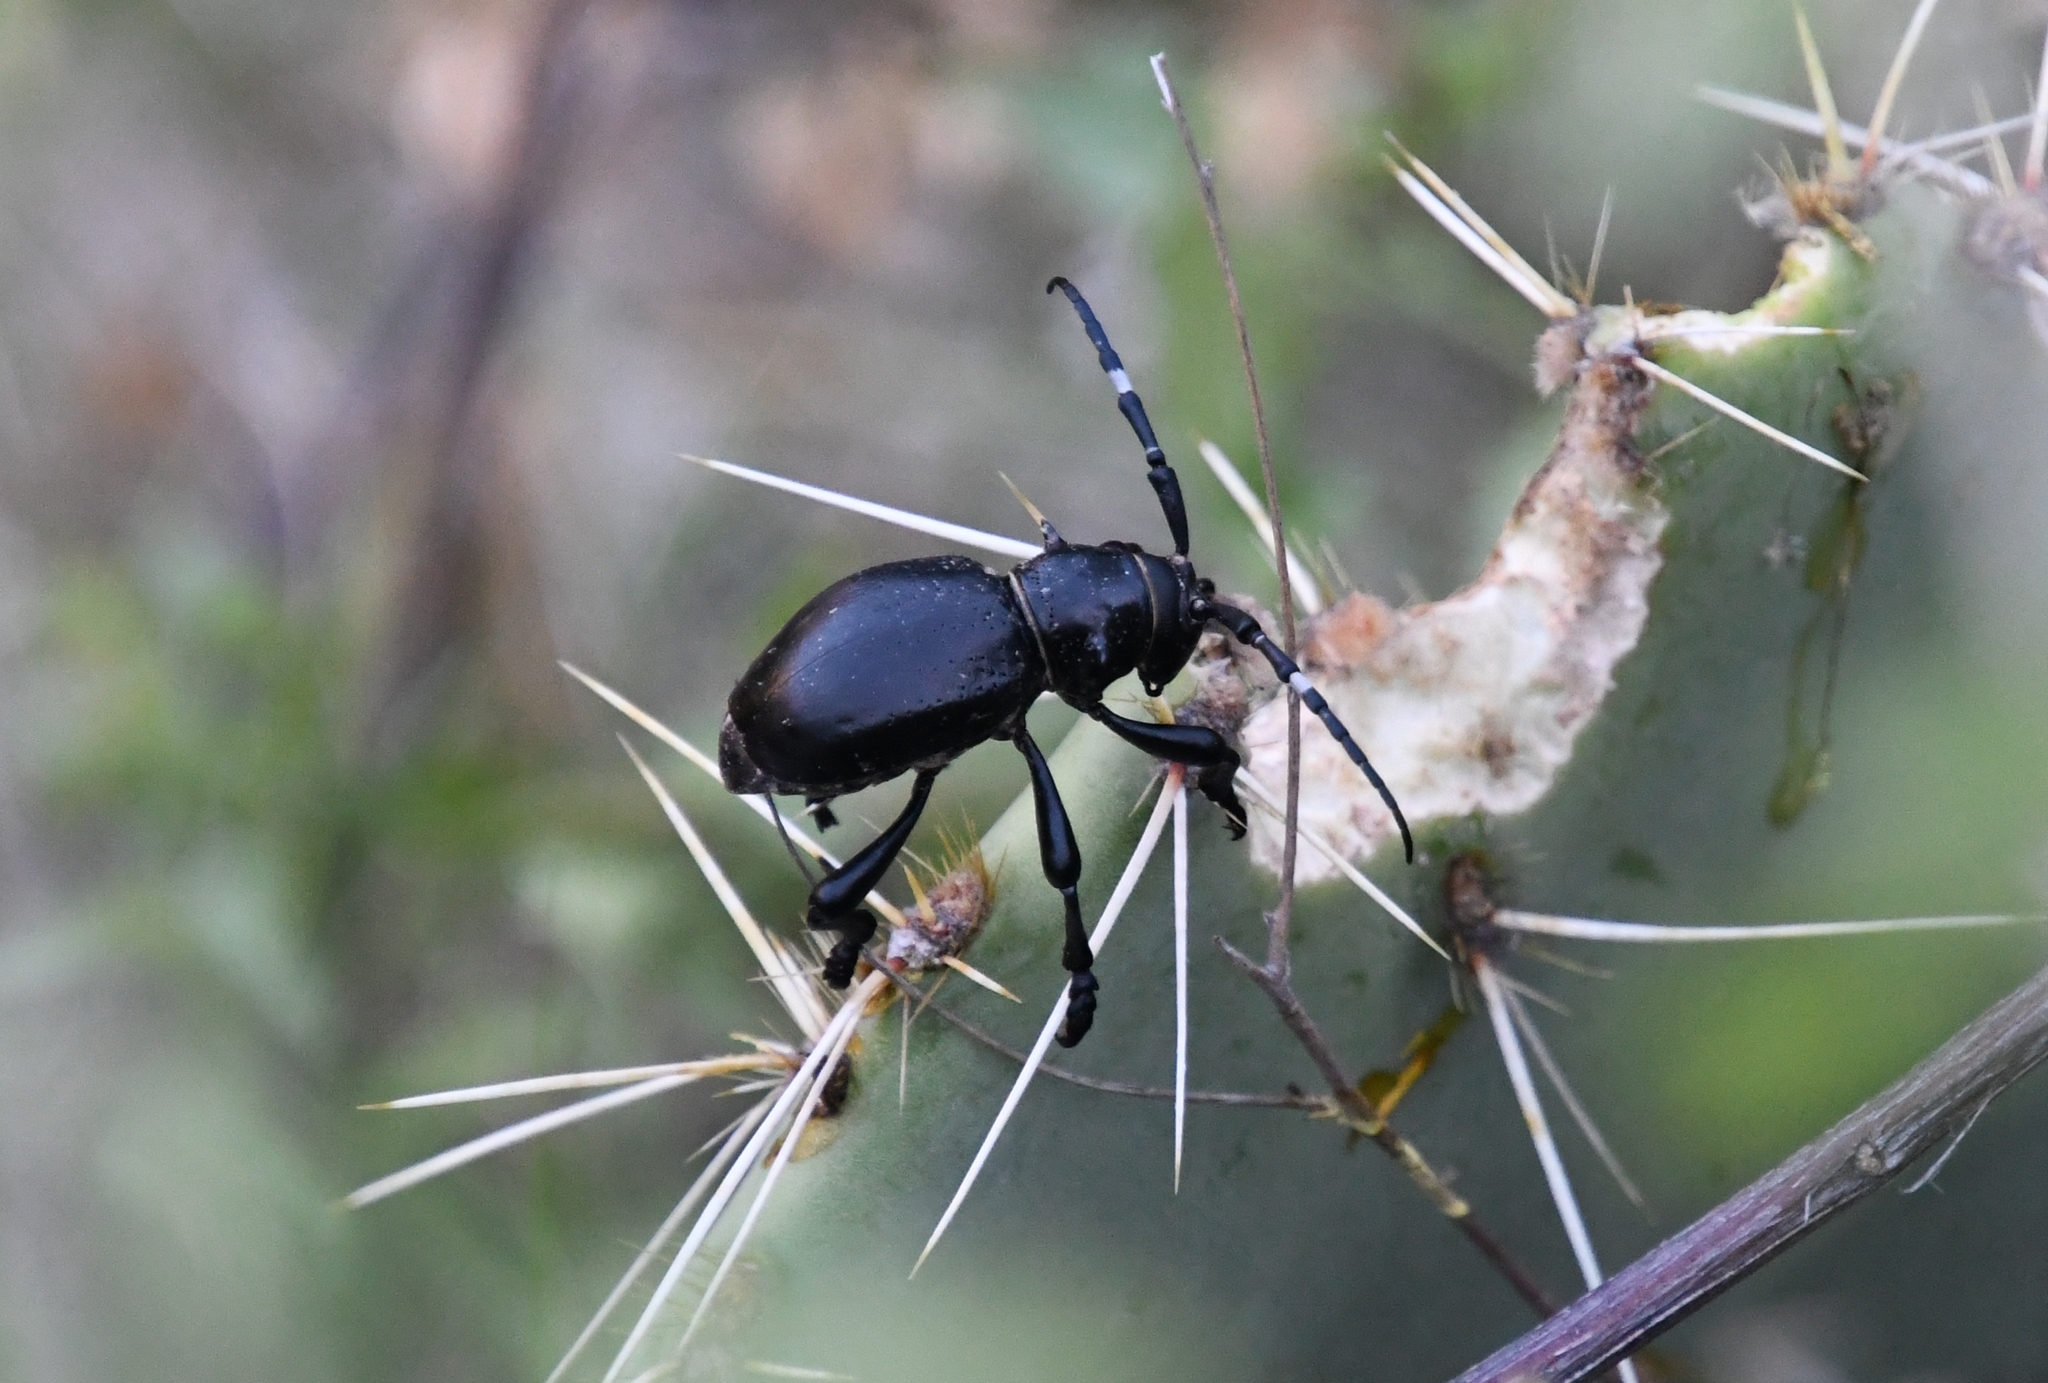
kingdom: Animalia
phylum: Arthropoda
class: Insecta
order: Coleoptera
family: Cerambycidae
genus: Moneilema
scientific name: Moneilema gigas
